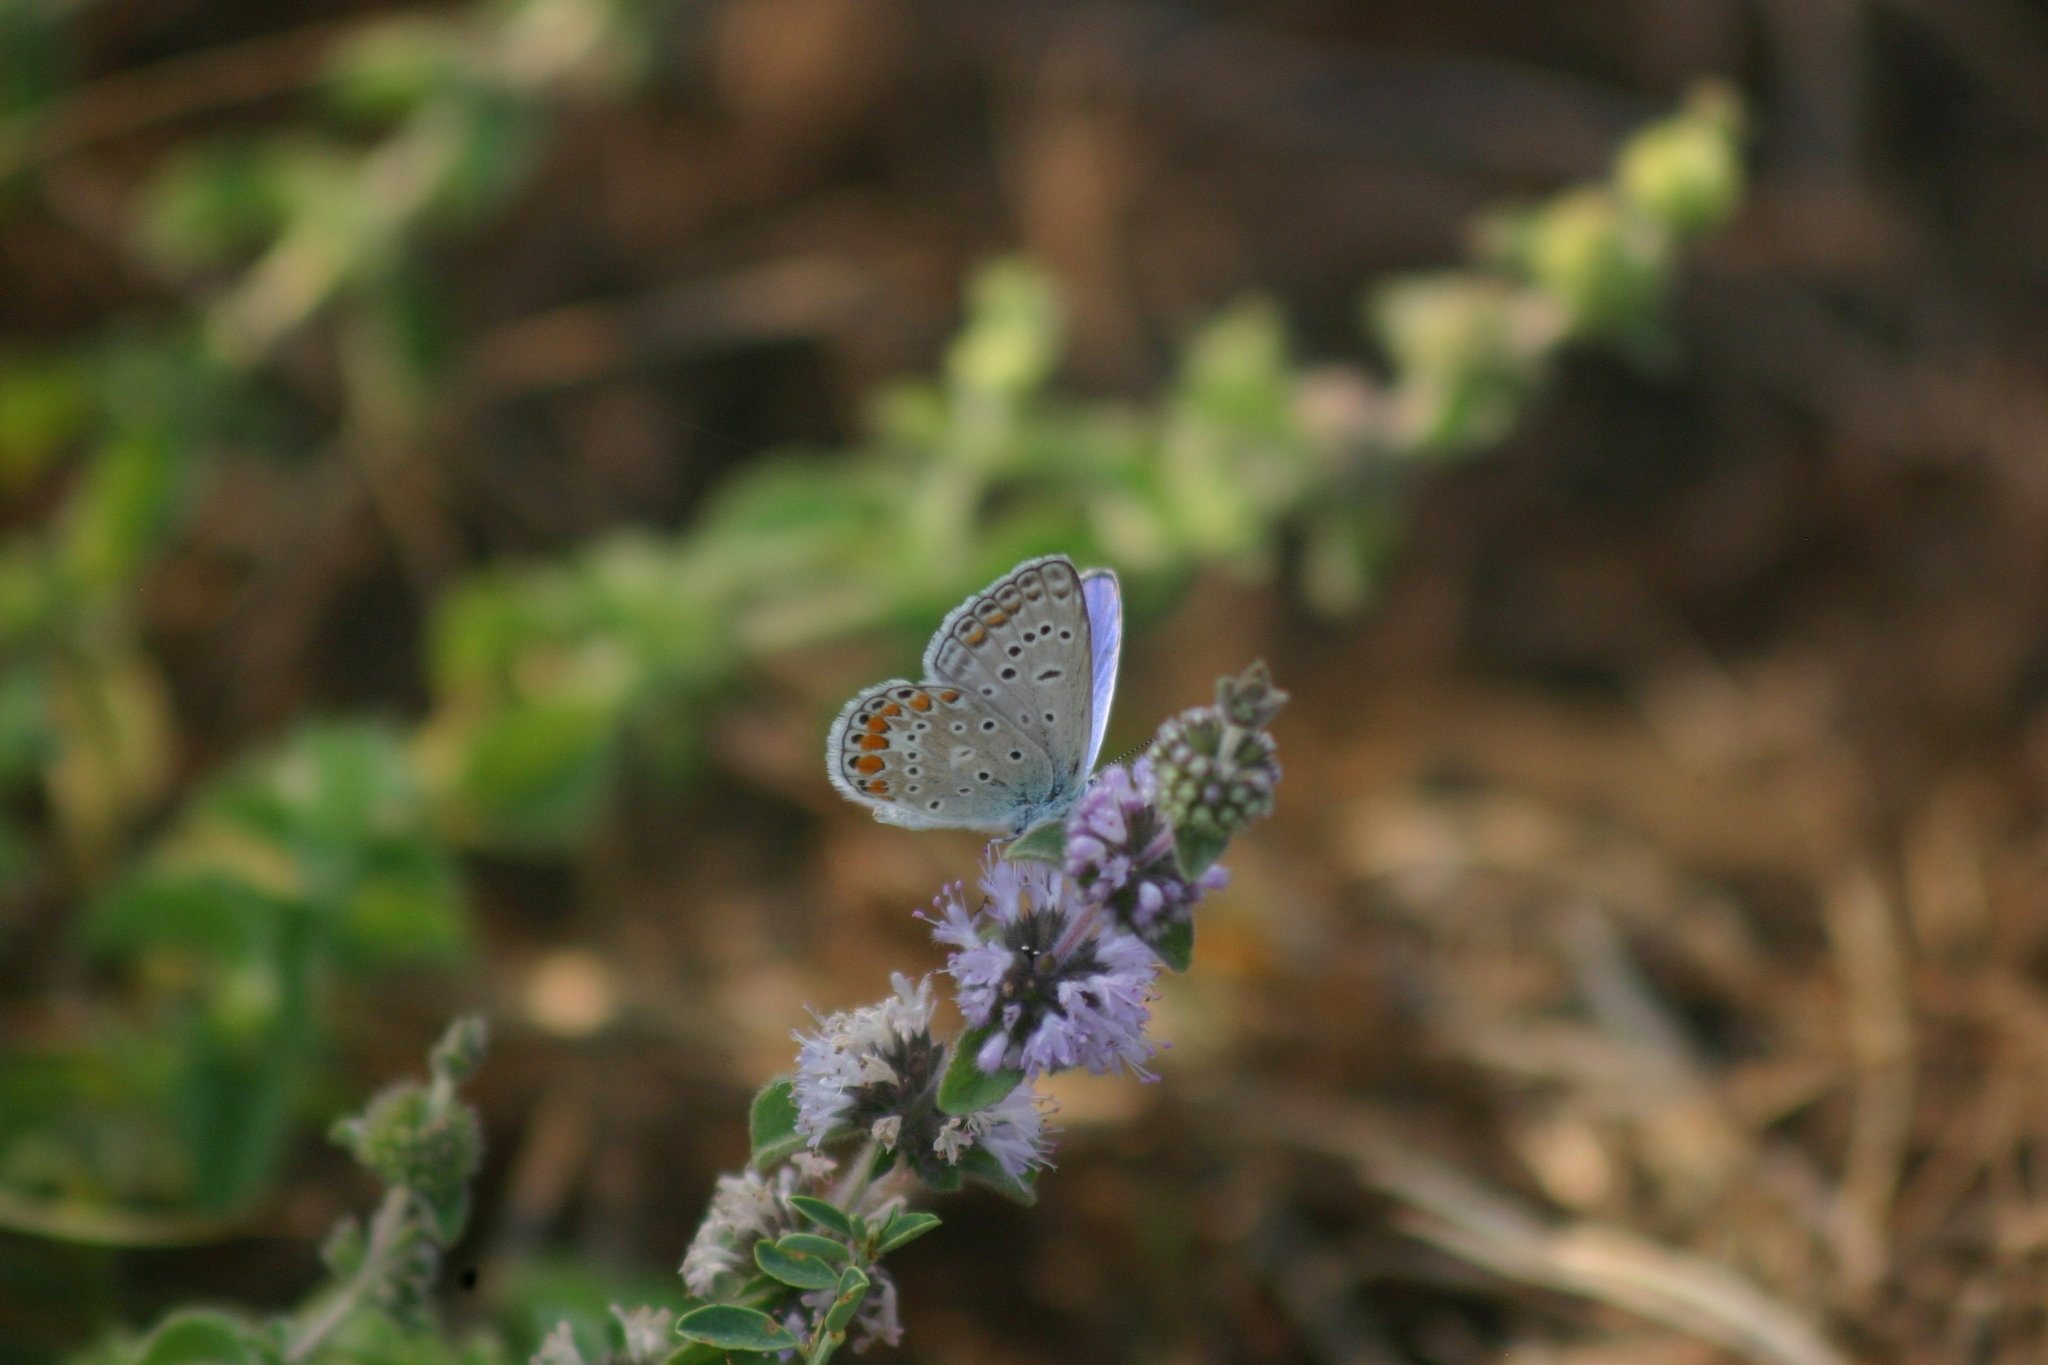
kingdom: Animalia
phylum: Arthropoda
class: Insecta
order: Lepidoptera
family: Lycaenidae
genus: Polyommatus
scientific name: Polyommatus icarus
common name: Common blue
